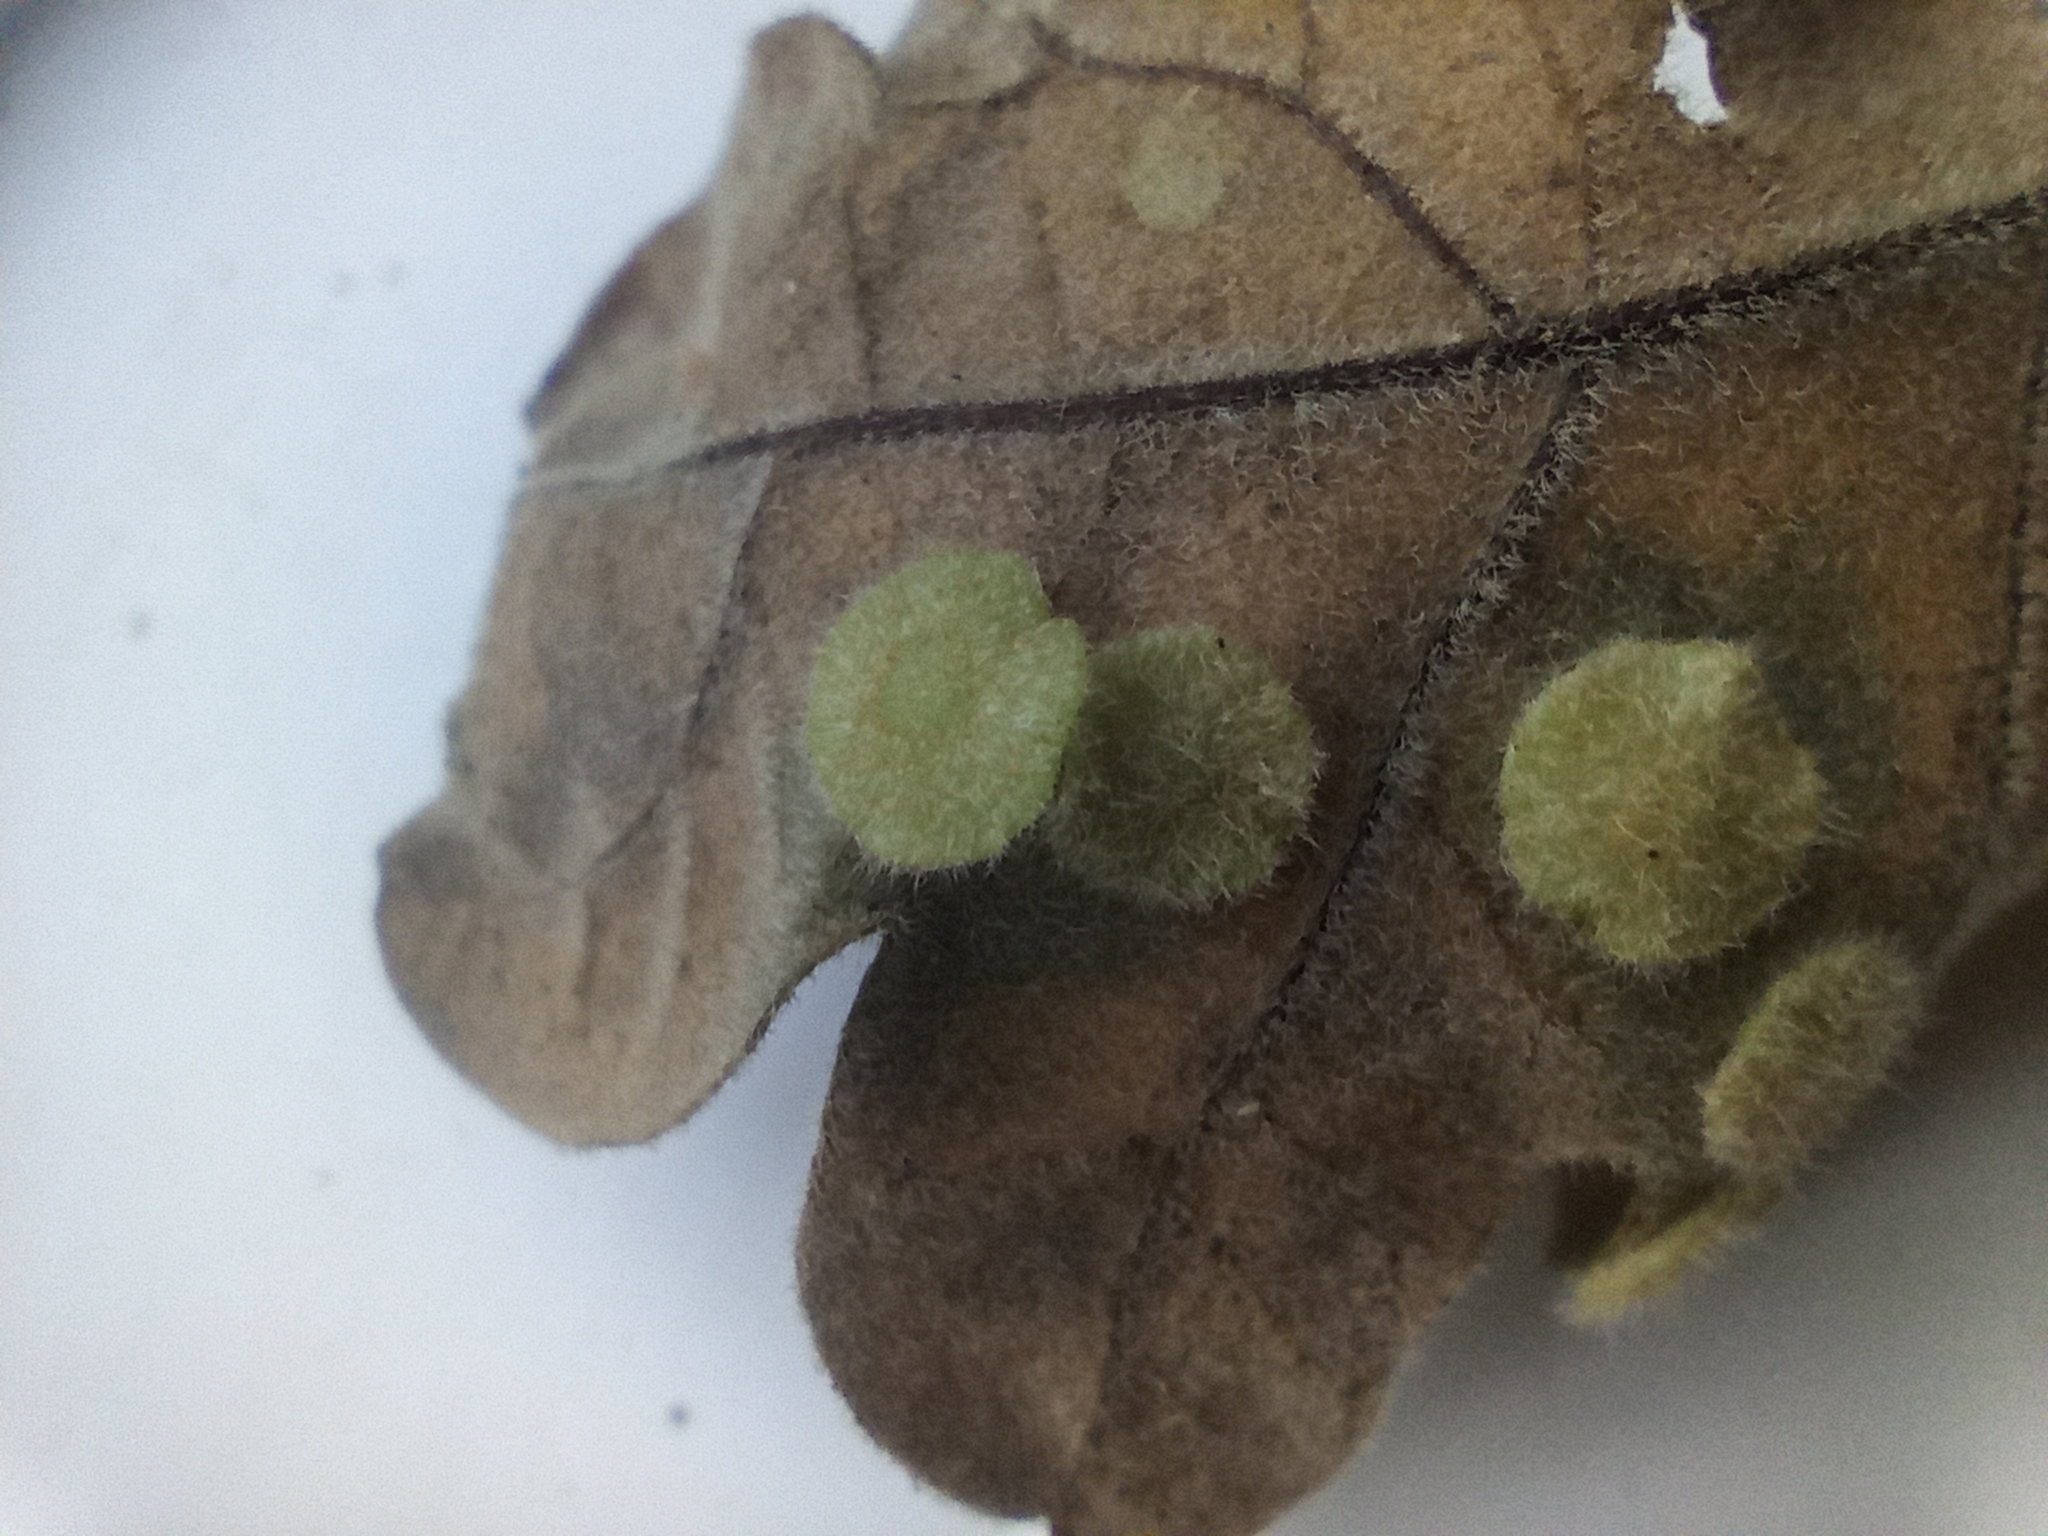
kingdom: Animalia
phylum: Arthropoda
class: Insecta
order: Hymenoptera
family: Cynipidae
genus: Neuroterus
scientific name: Neuroterus quercusbaccarum
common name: Common spangle gall
